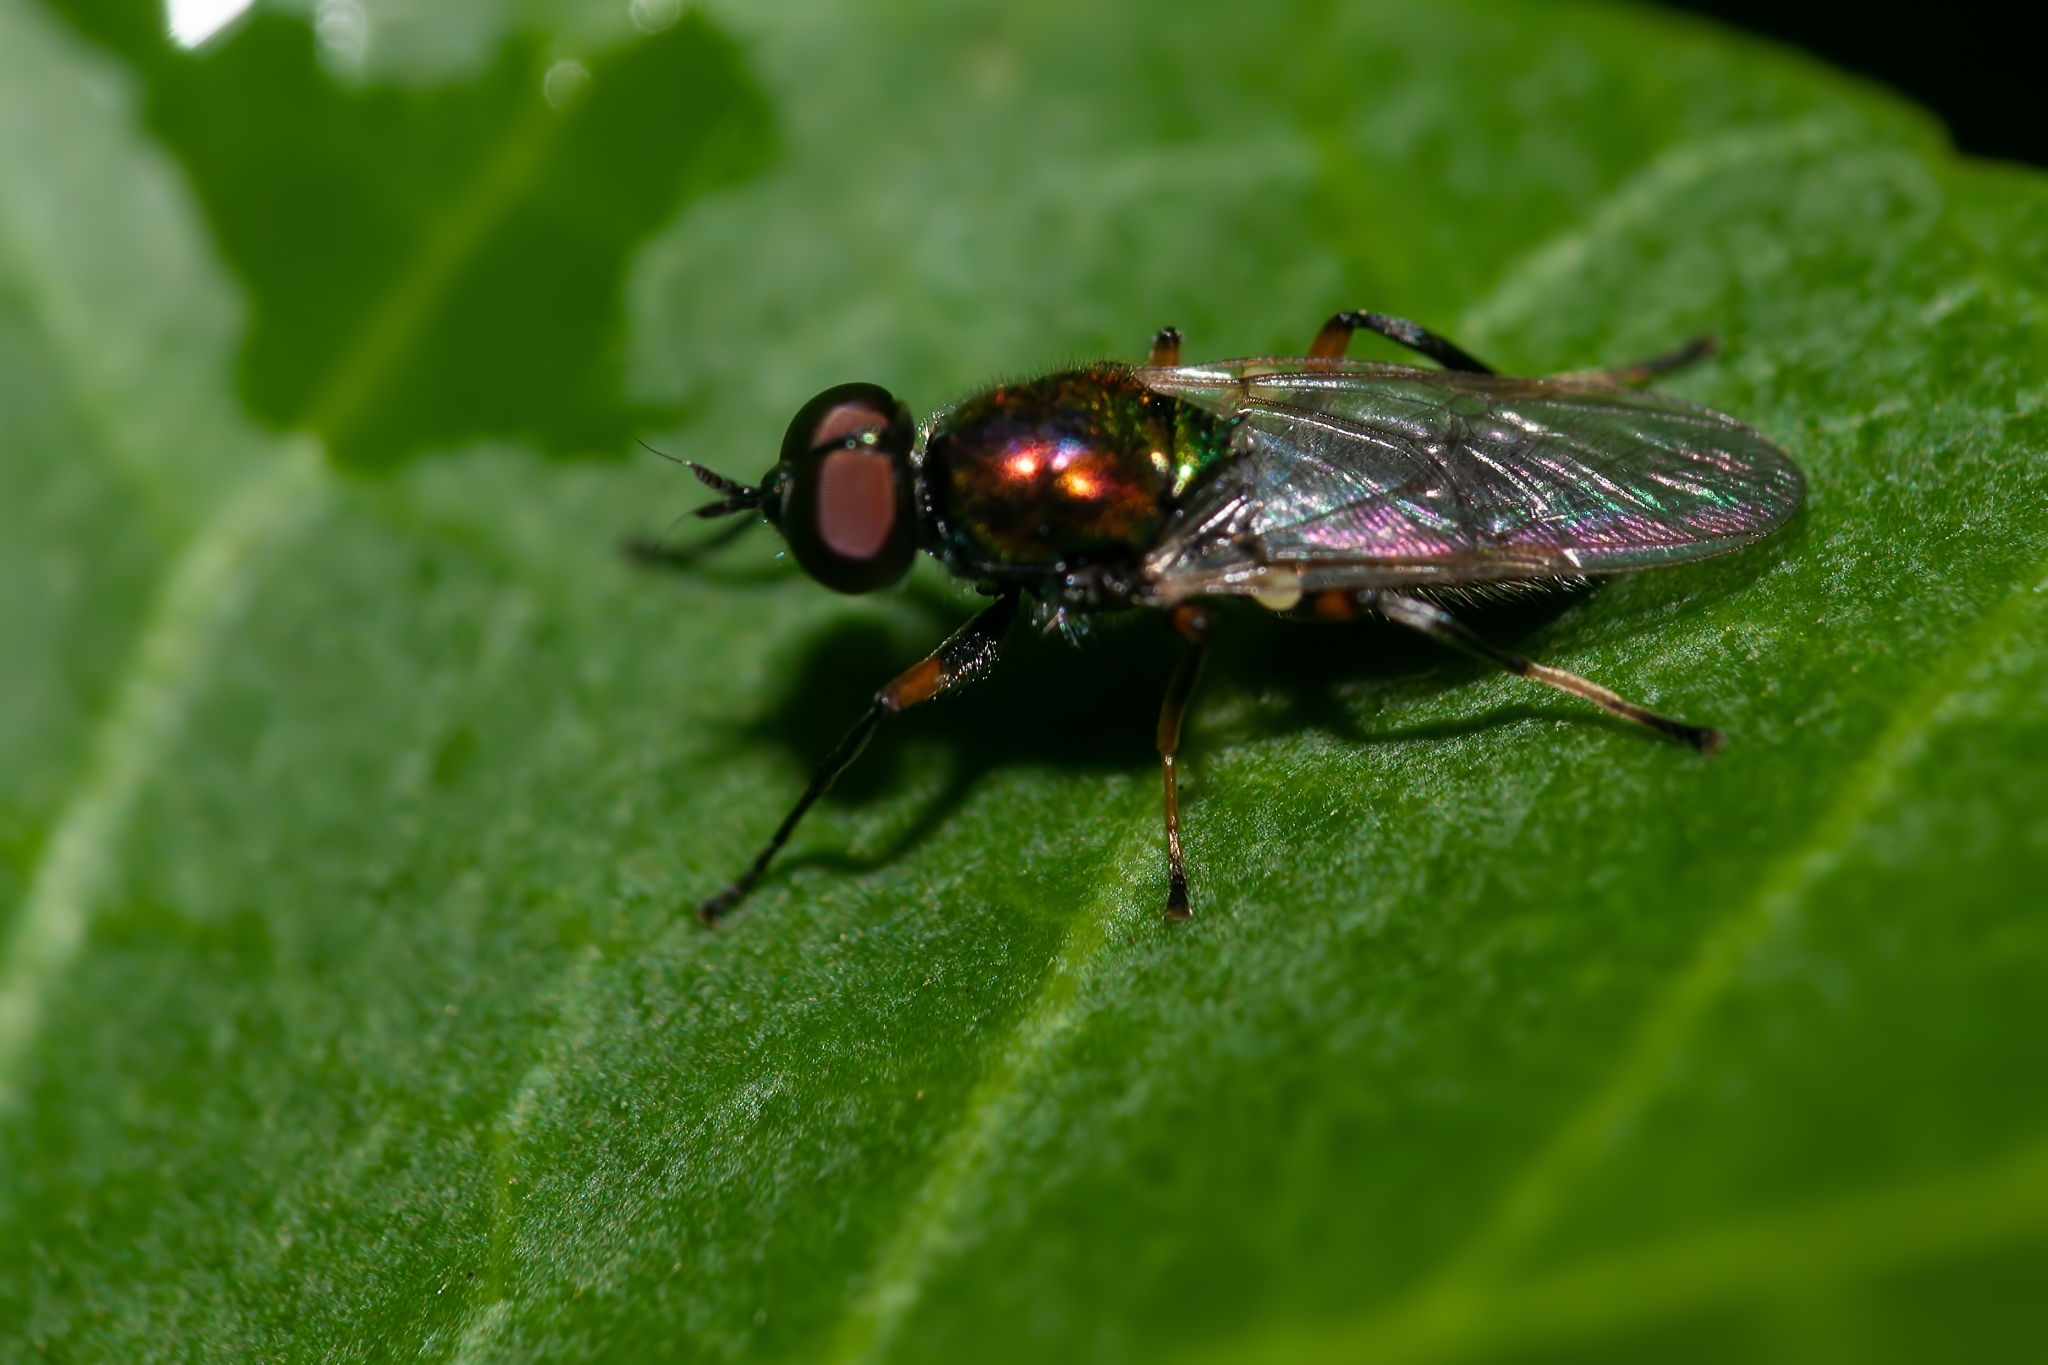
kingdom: Animalia
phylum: Arthropoda
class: Insecta
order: Diptera
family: Stratiomyidae
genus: Nothomyia
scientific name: Nothomyia calopus
